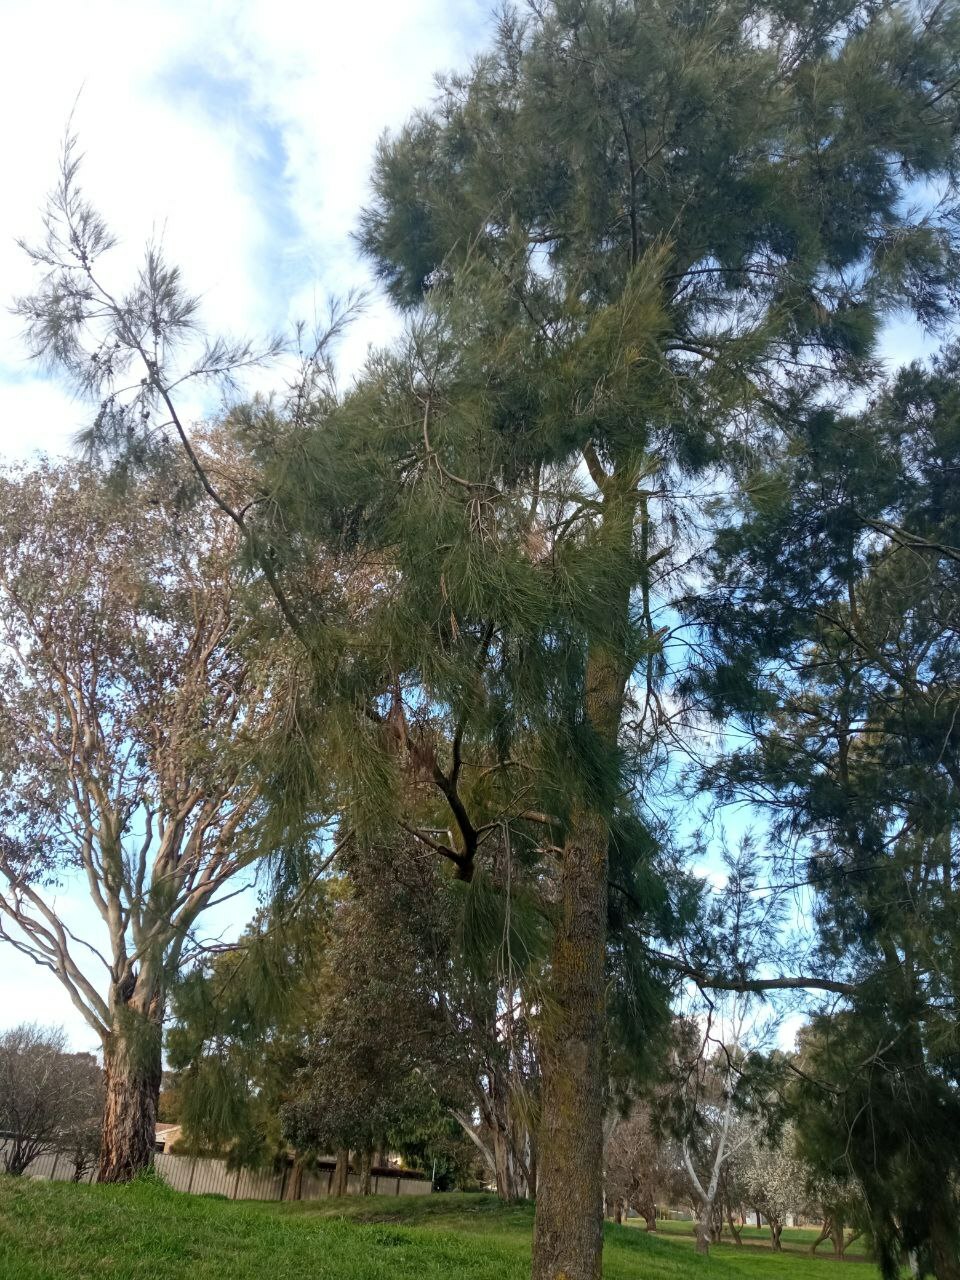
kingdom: Plantae
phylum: Tracheophyta
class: Magnoliopsida
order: Fagales
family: Casuarinaceae
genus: Casuarina
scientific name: Casuarina cunninghamiana
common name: River sheoak
